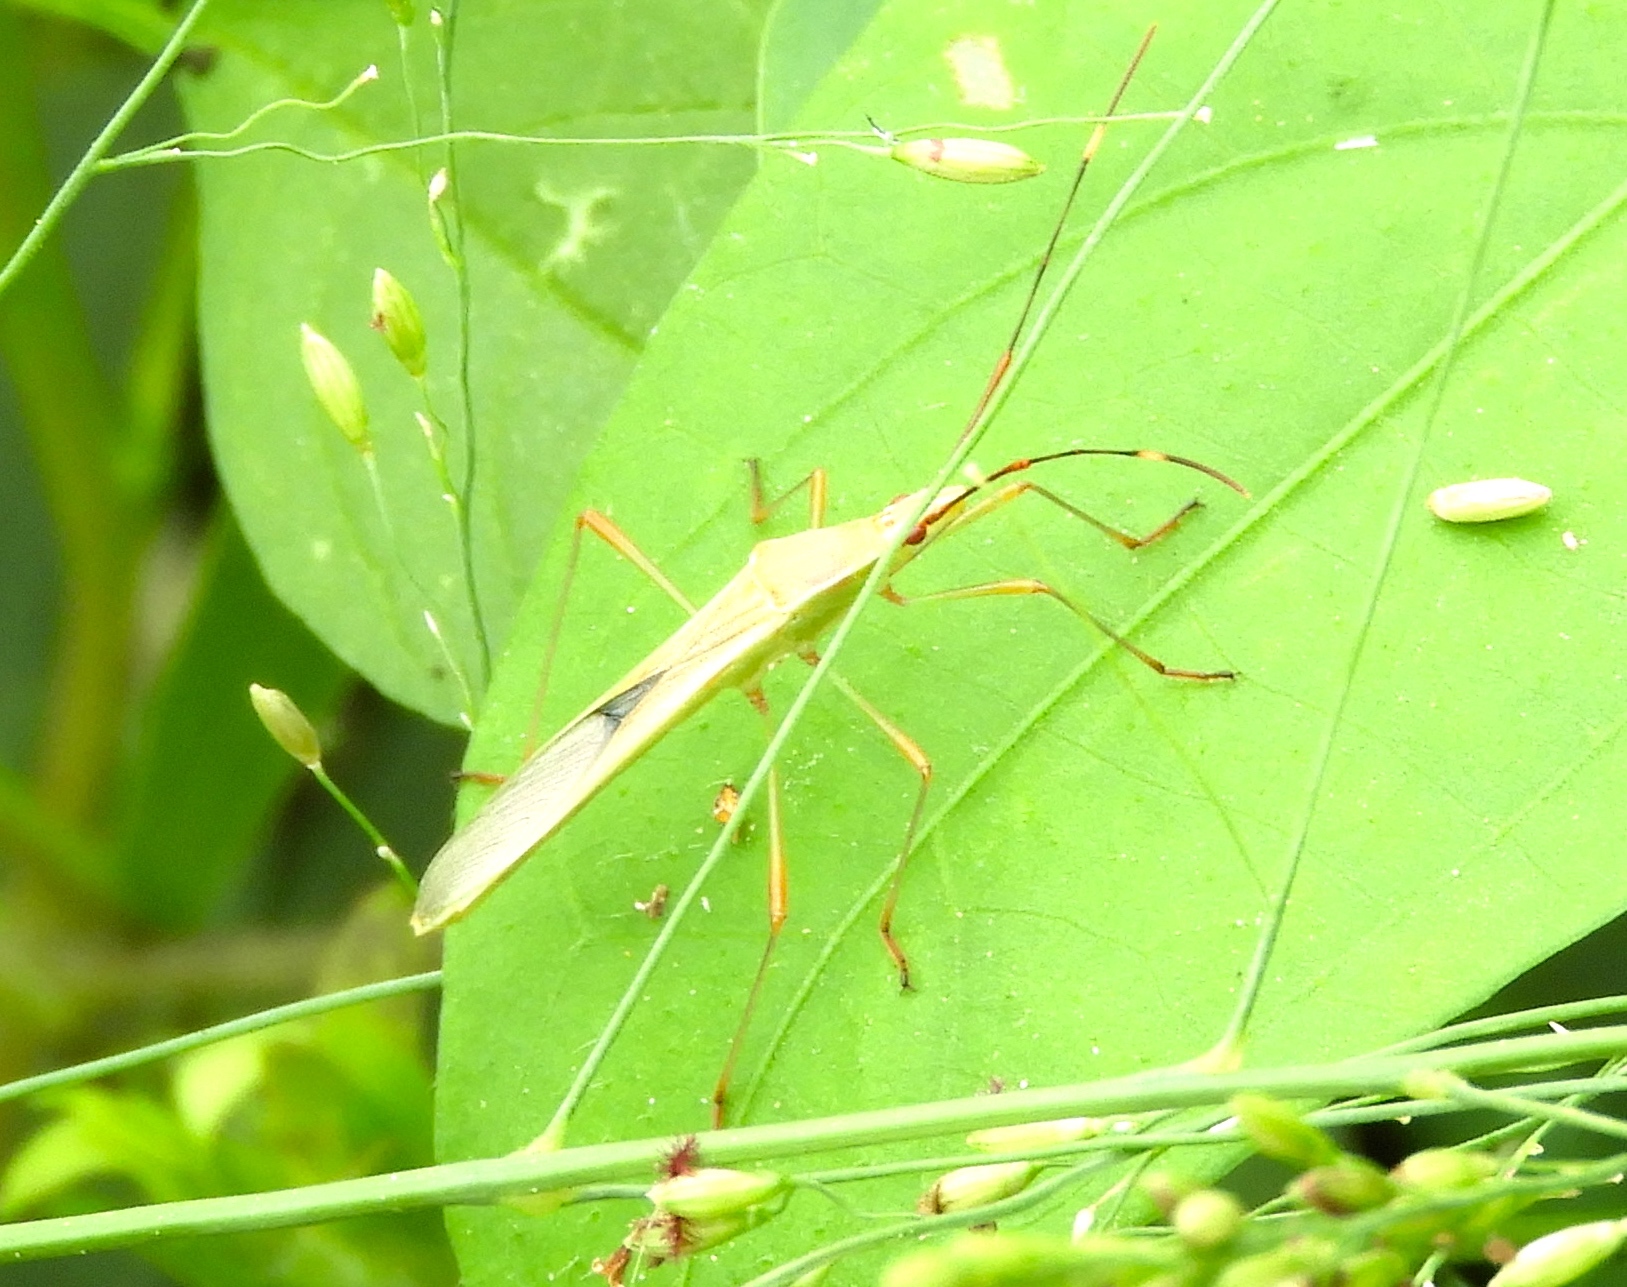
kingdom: Animalia
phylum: Arthropoda
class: Insecta
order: Hemiptera
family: Alydidae
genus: Stenocoris
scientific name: Stenocoris
